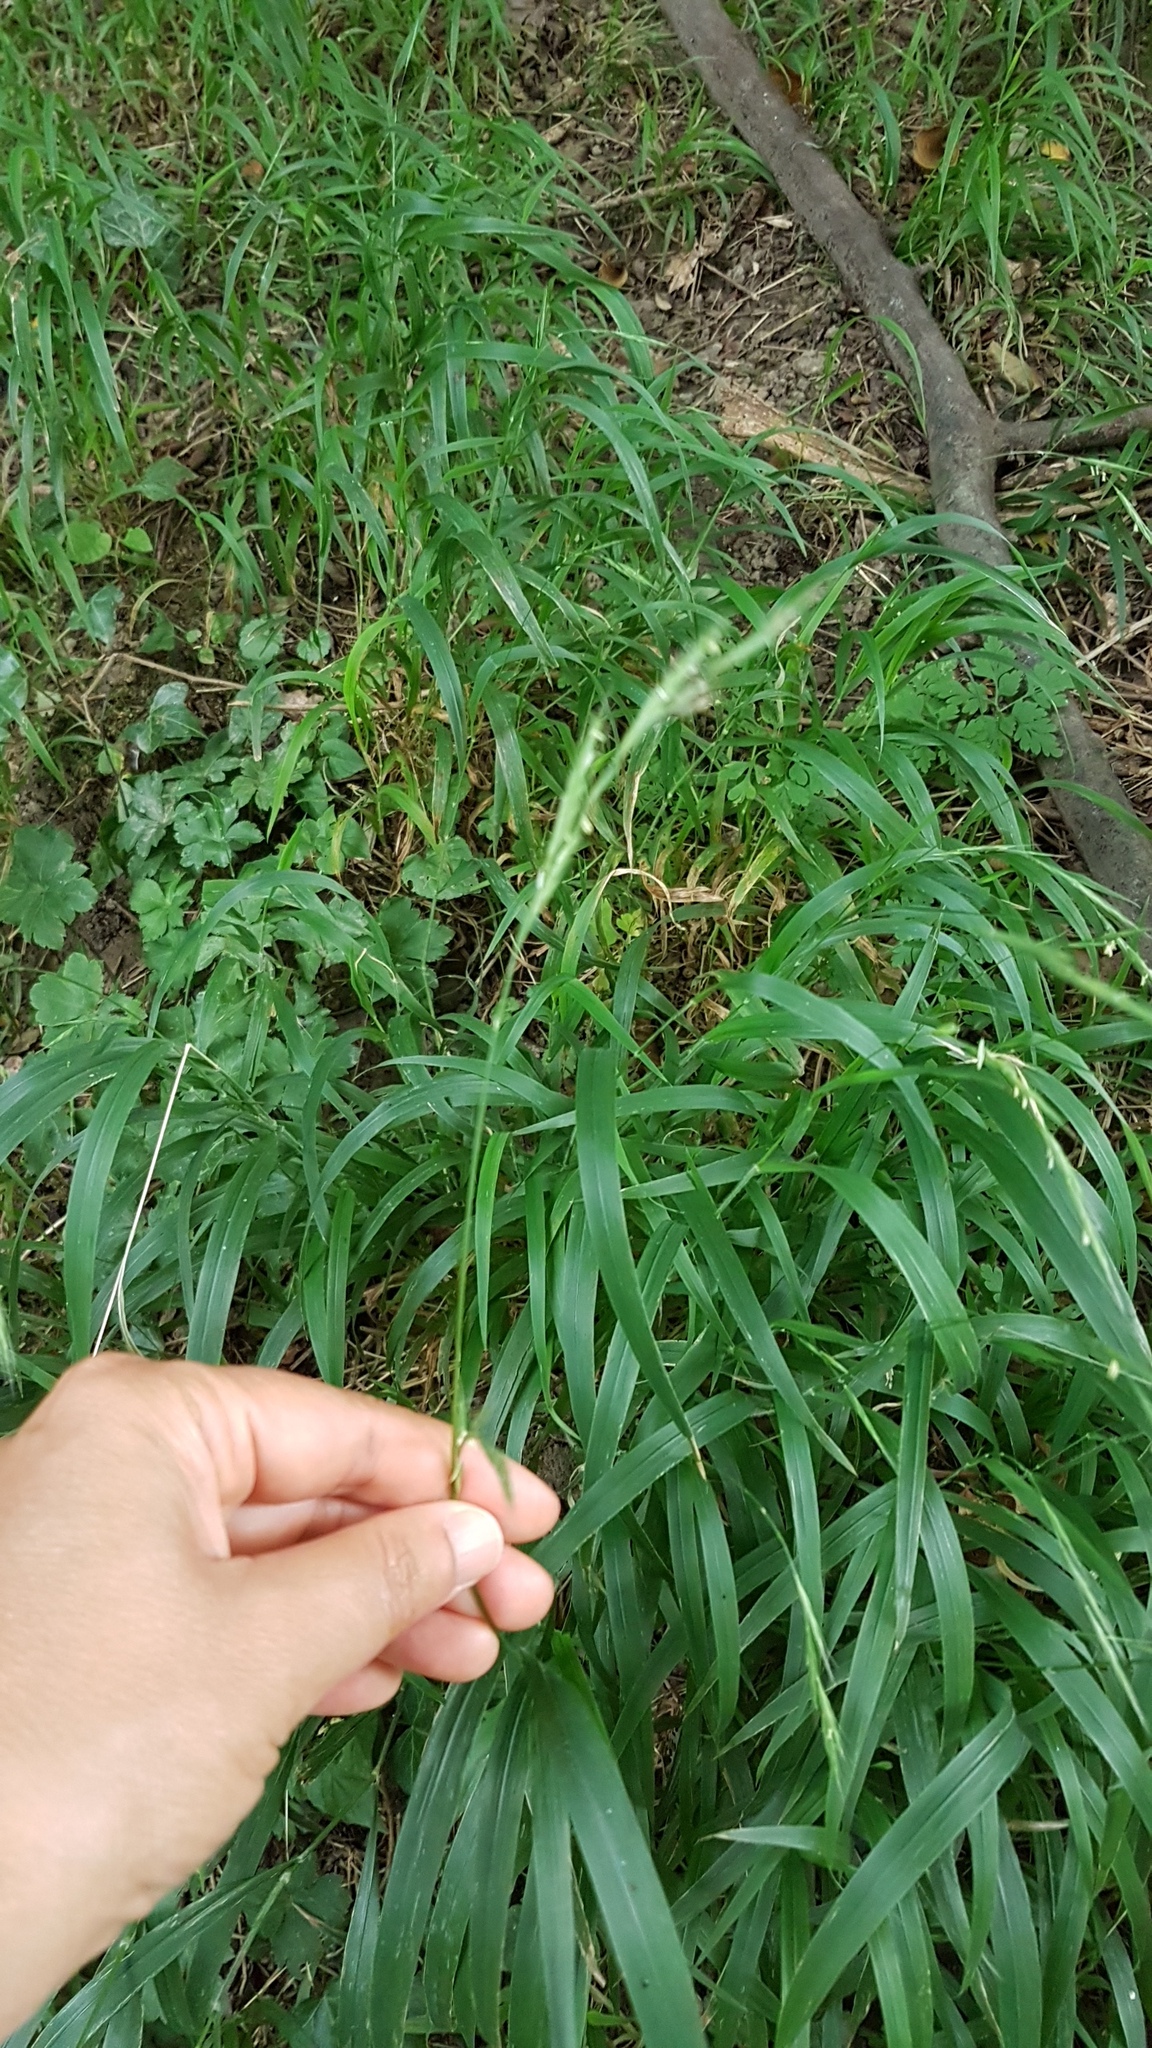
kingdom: Plantae
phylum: Tracheophyta
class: Liliopsida
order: Poales
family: Poaceae
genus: Brachypodium
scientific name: Brachypodium sylvaticum
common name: False-brome
